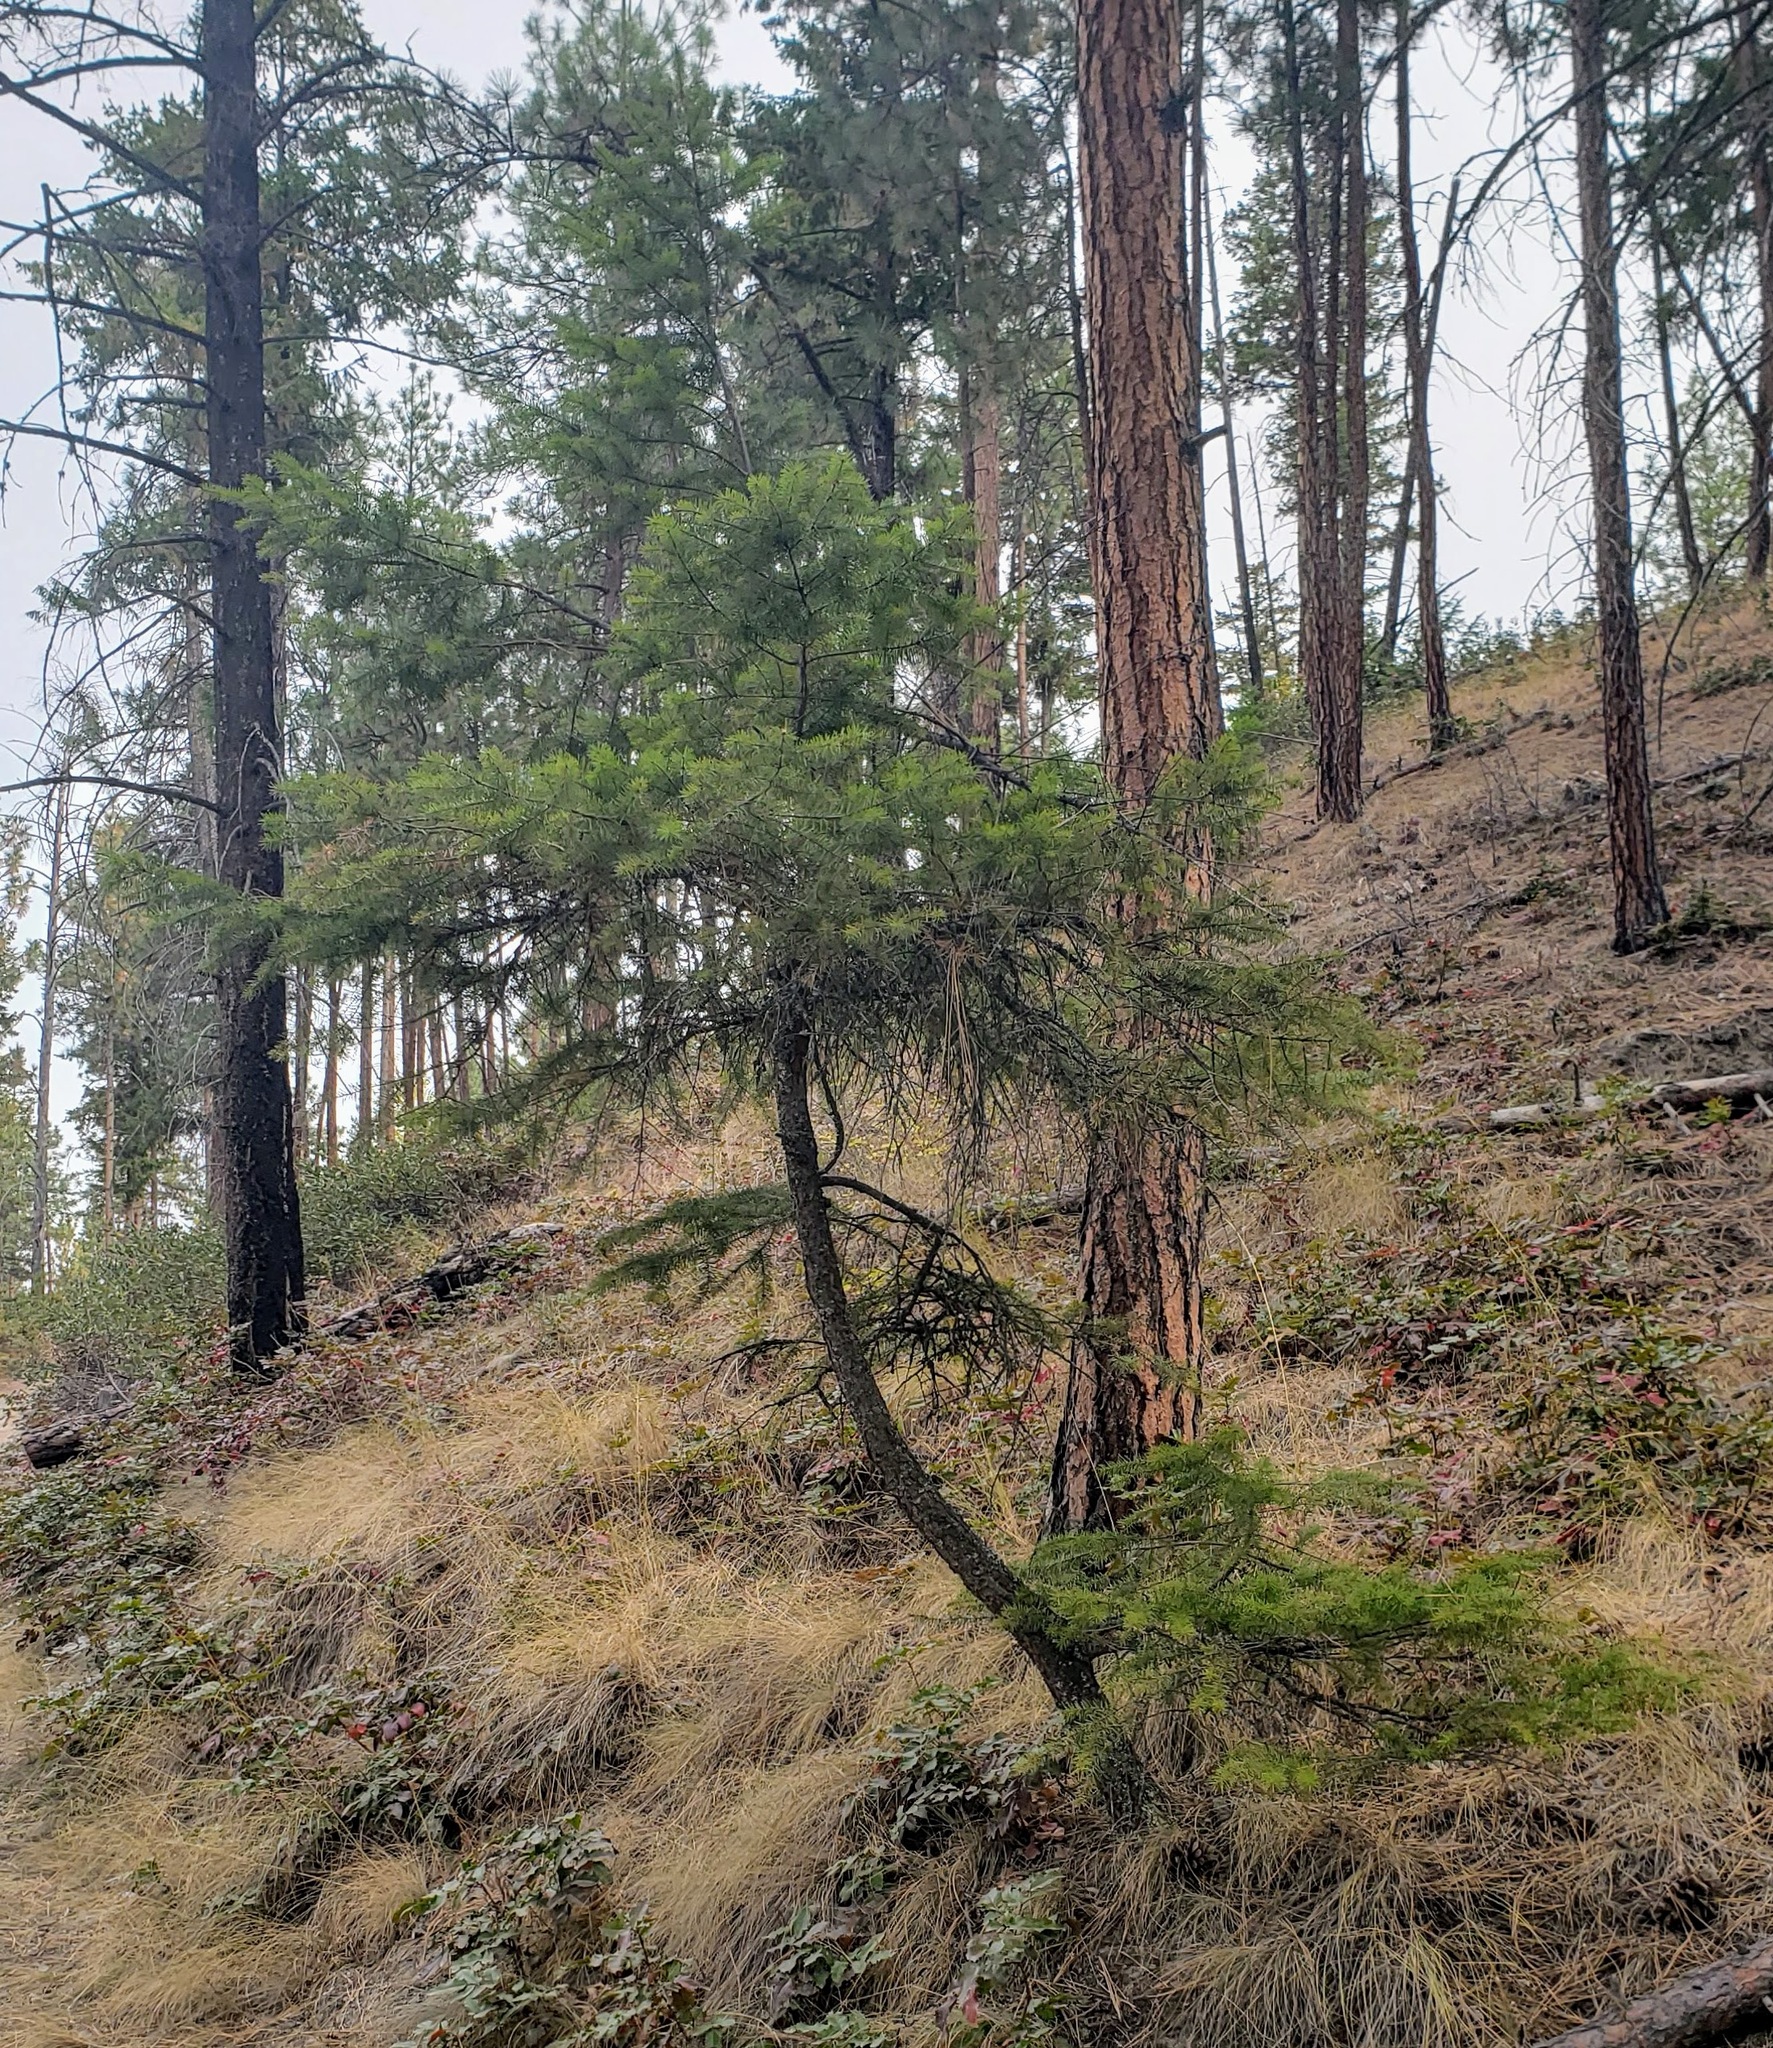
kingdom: Plantae
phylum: Tracheophyta
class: Pinopsida
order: Pinales
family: Pinaceae
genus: Pseudotsuga
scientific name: Pseudotsuga menziesii
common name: Douglas fir
